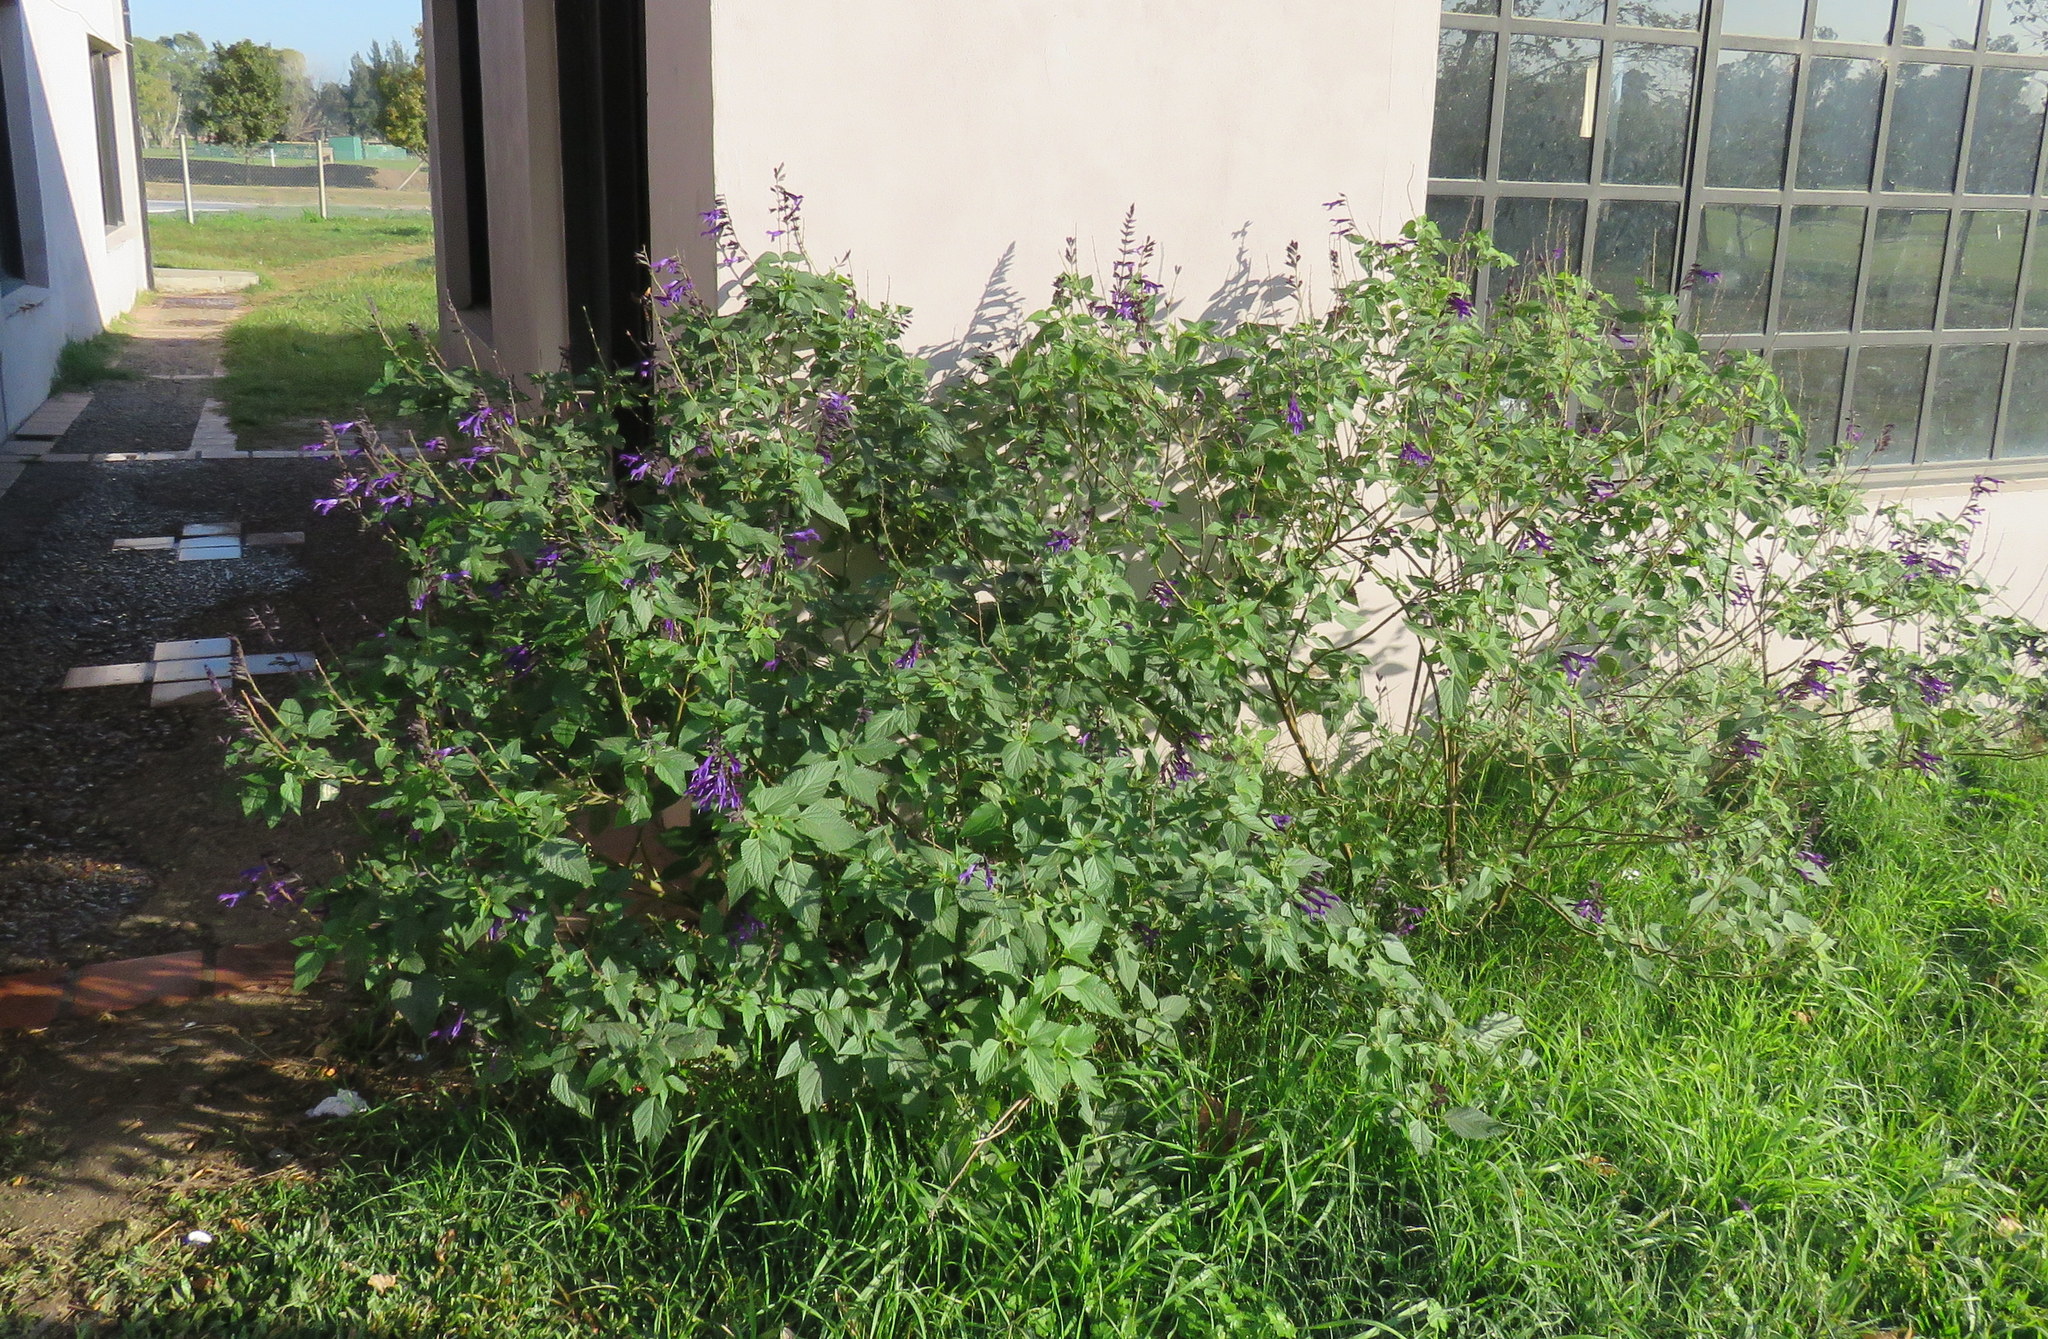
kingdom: Plantae
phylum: Tracheophyta
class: Magnoliopsida
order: Lamiales
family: Lamiaceae
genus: Salvia
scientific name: Salvia guaranitica
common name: Anise-scented sage
